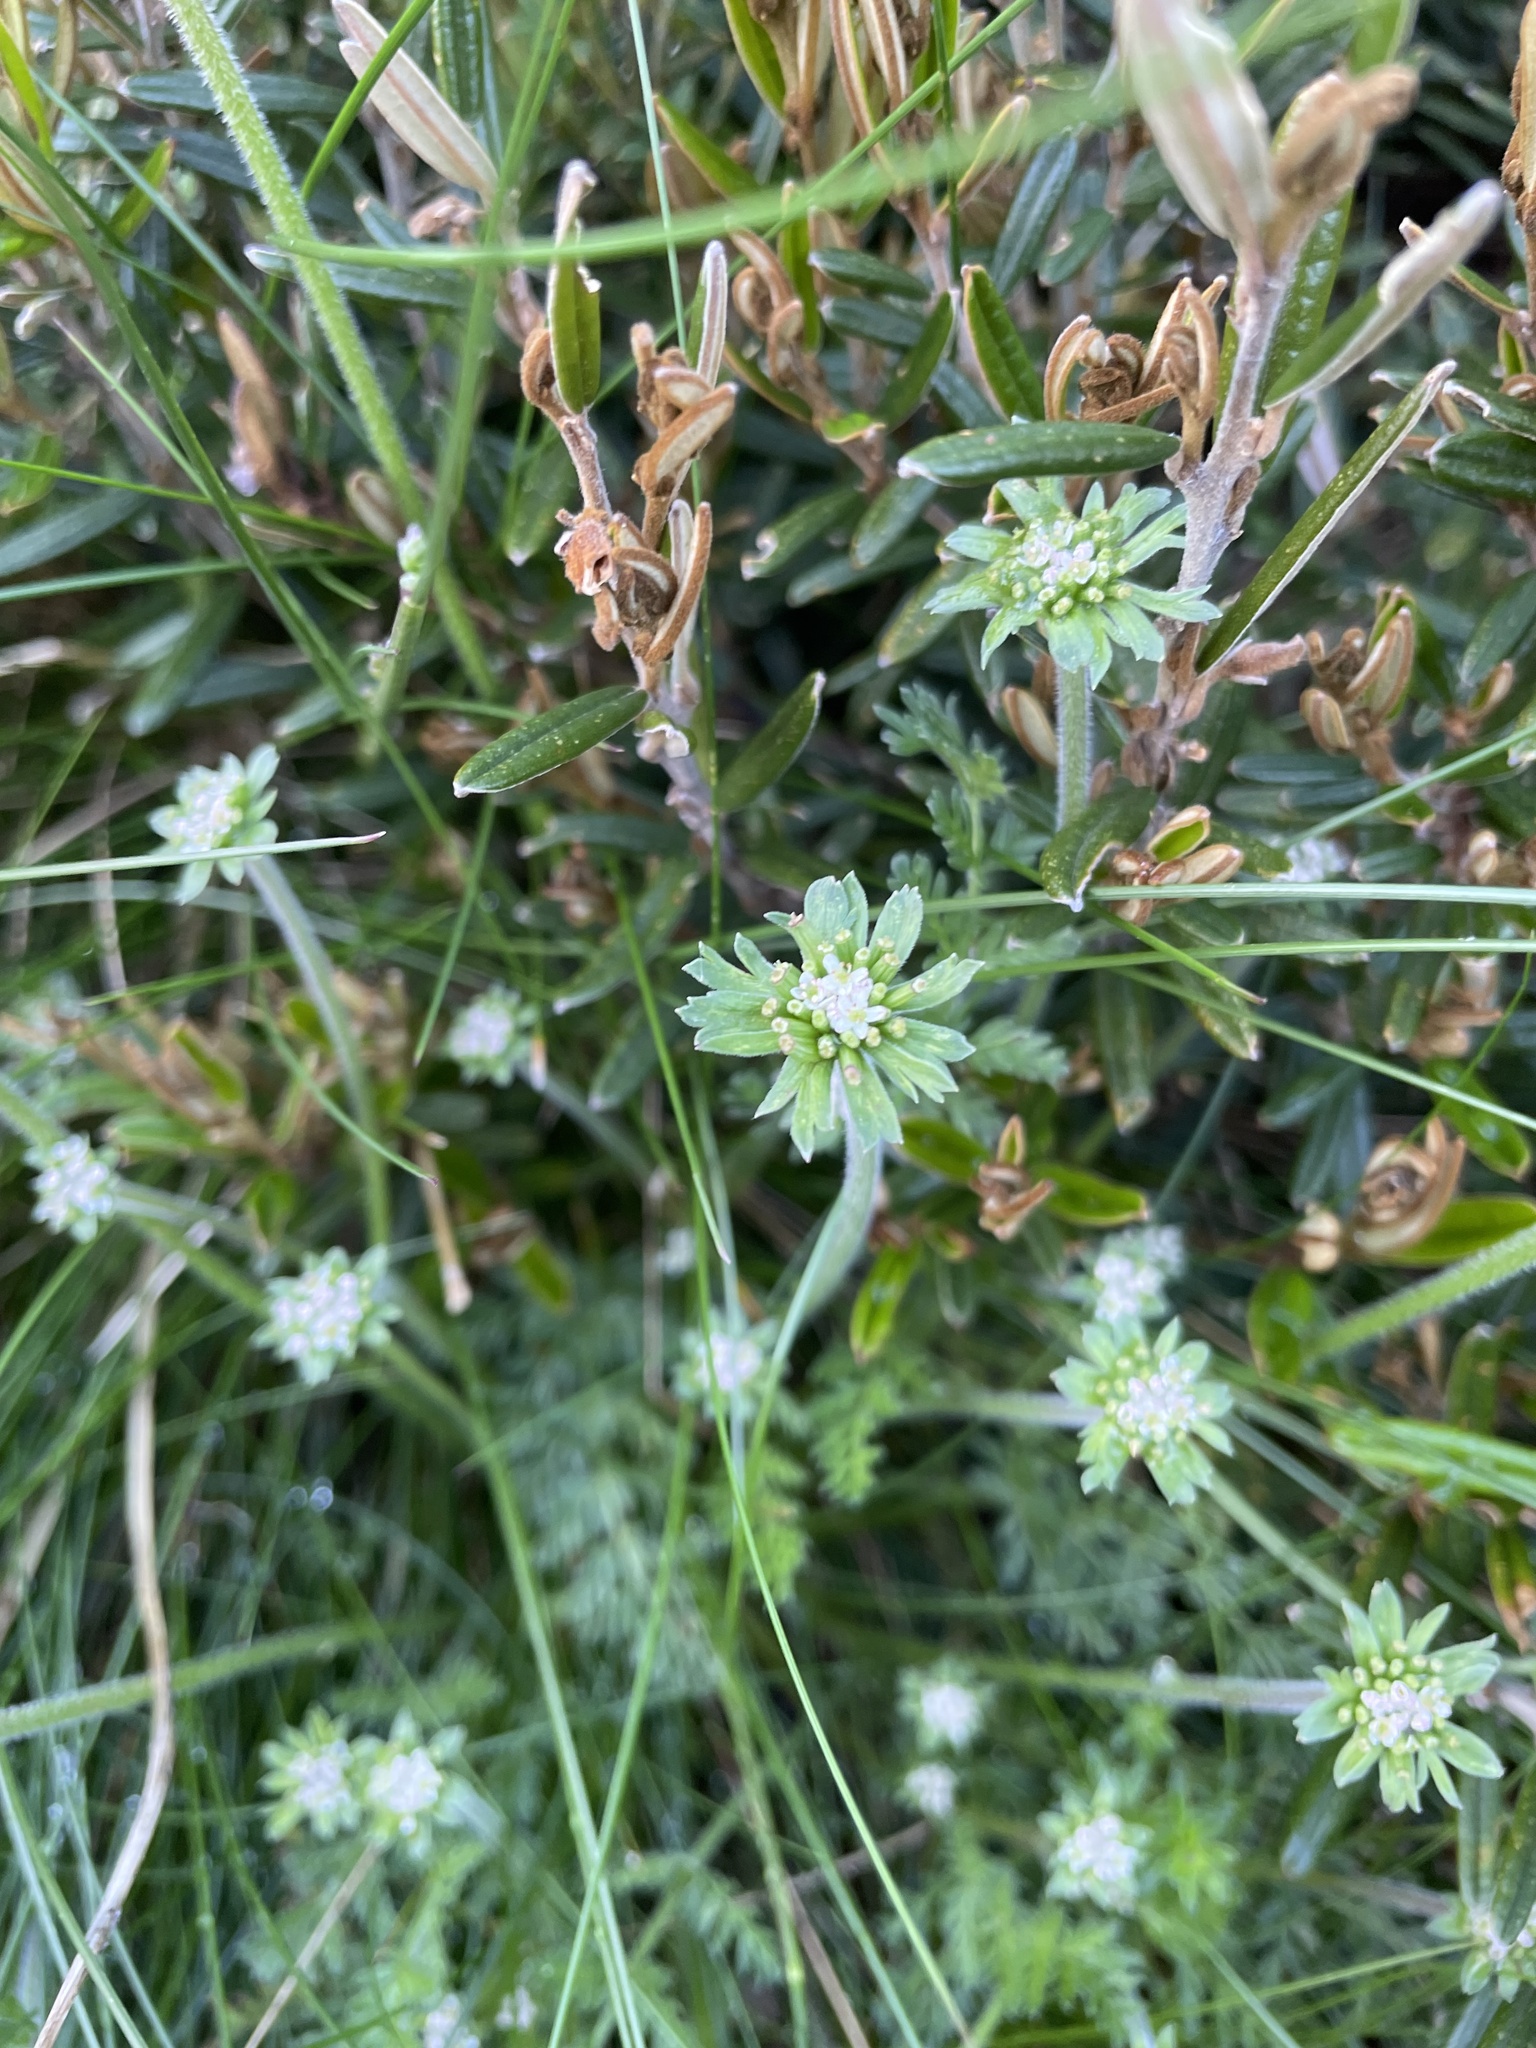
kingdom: Plantae
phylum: Tracheophyta
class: Magnoliopsida
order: Apiales
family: Apiaceae
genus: Chaerophyllum
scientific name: Chaerophyllum eriopodum
